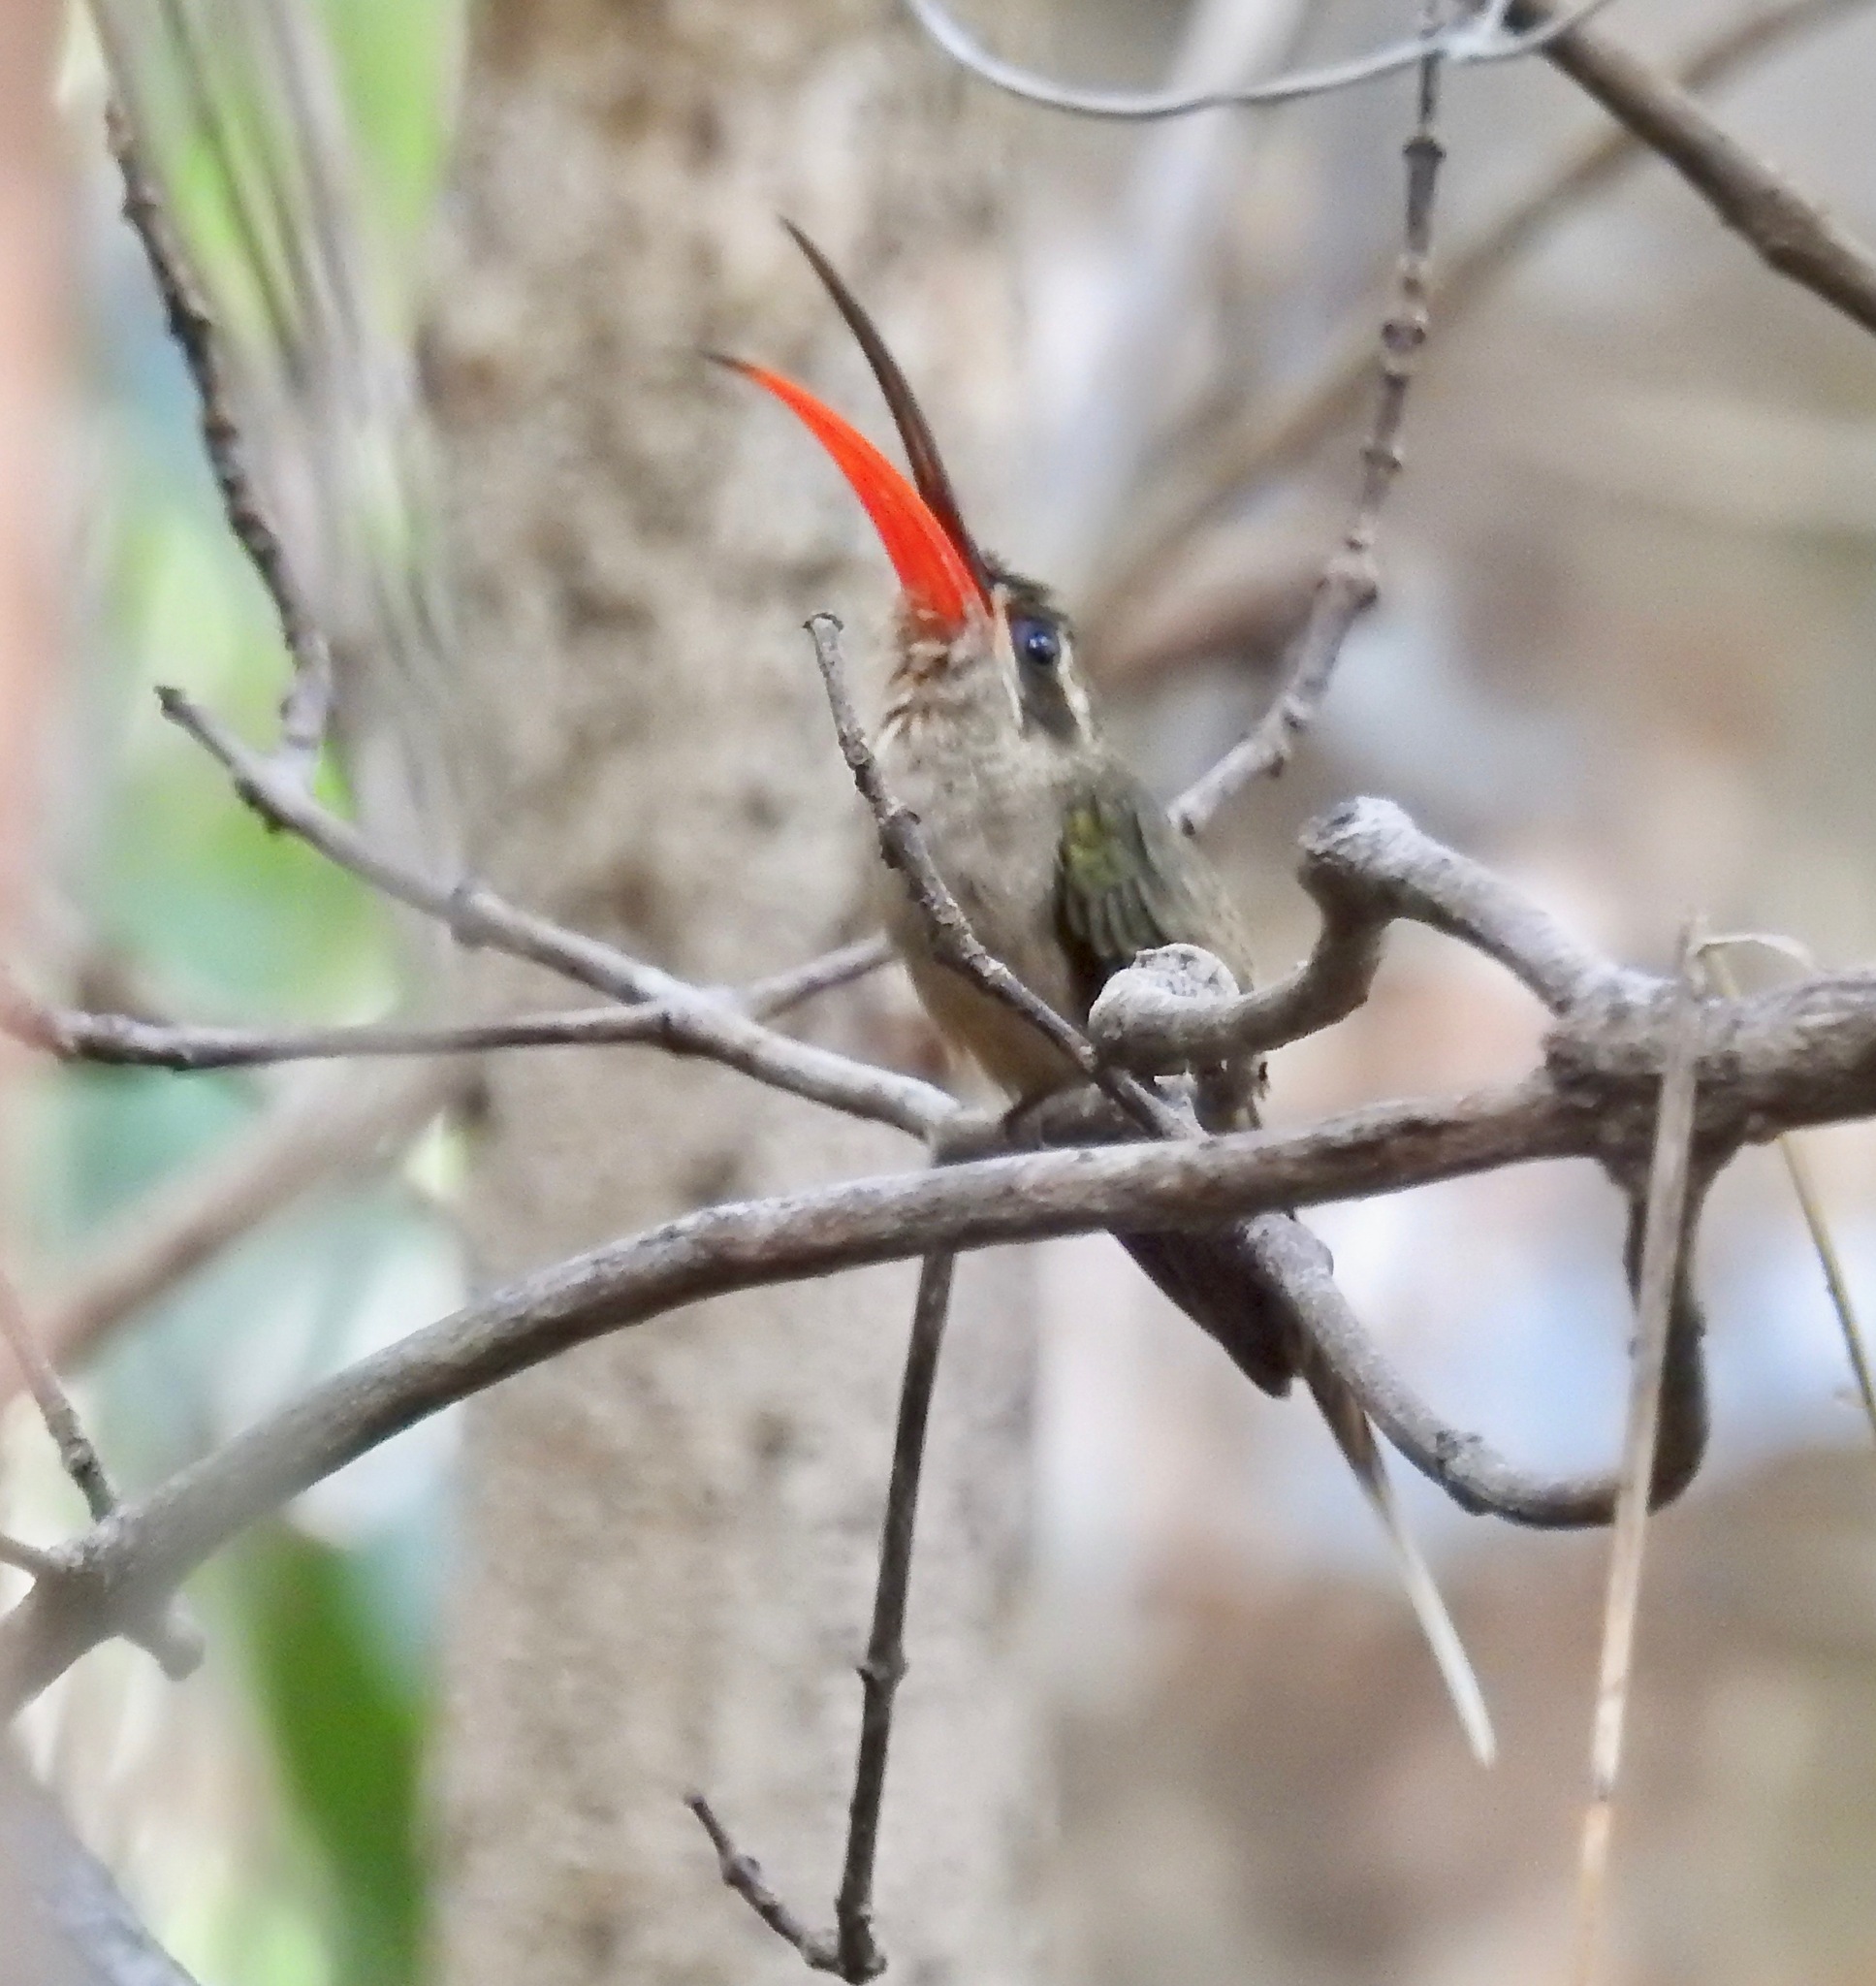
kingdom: Animalia
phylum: Chordata
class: Aves
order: Apodiformes
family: Trochilidae
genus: Phaethornis
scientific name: Phaethornis malaris
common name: Great-billed hermit
